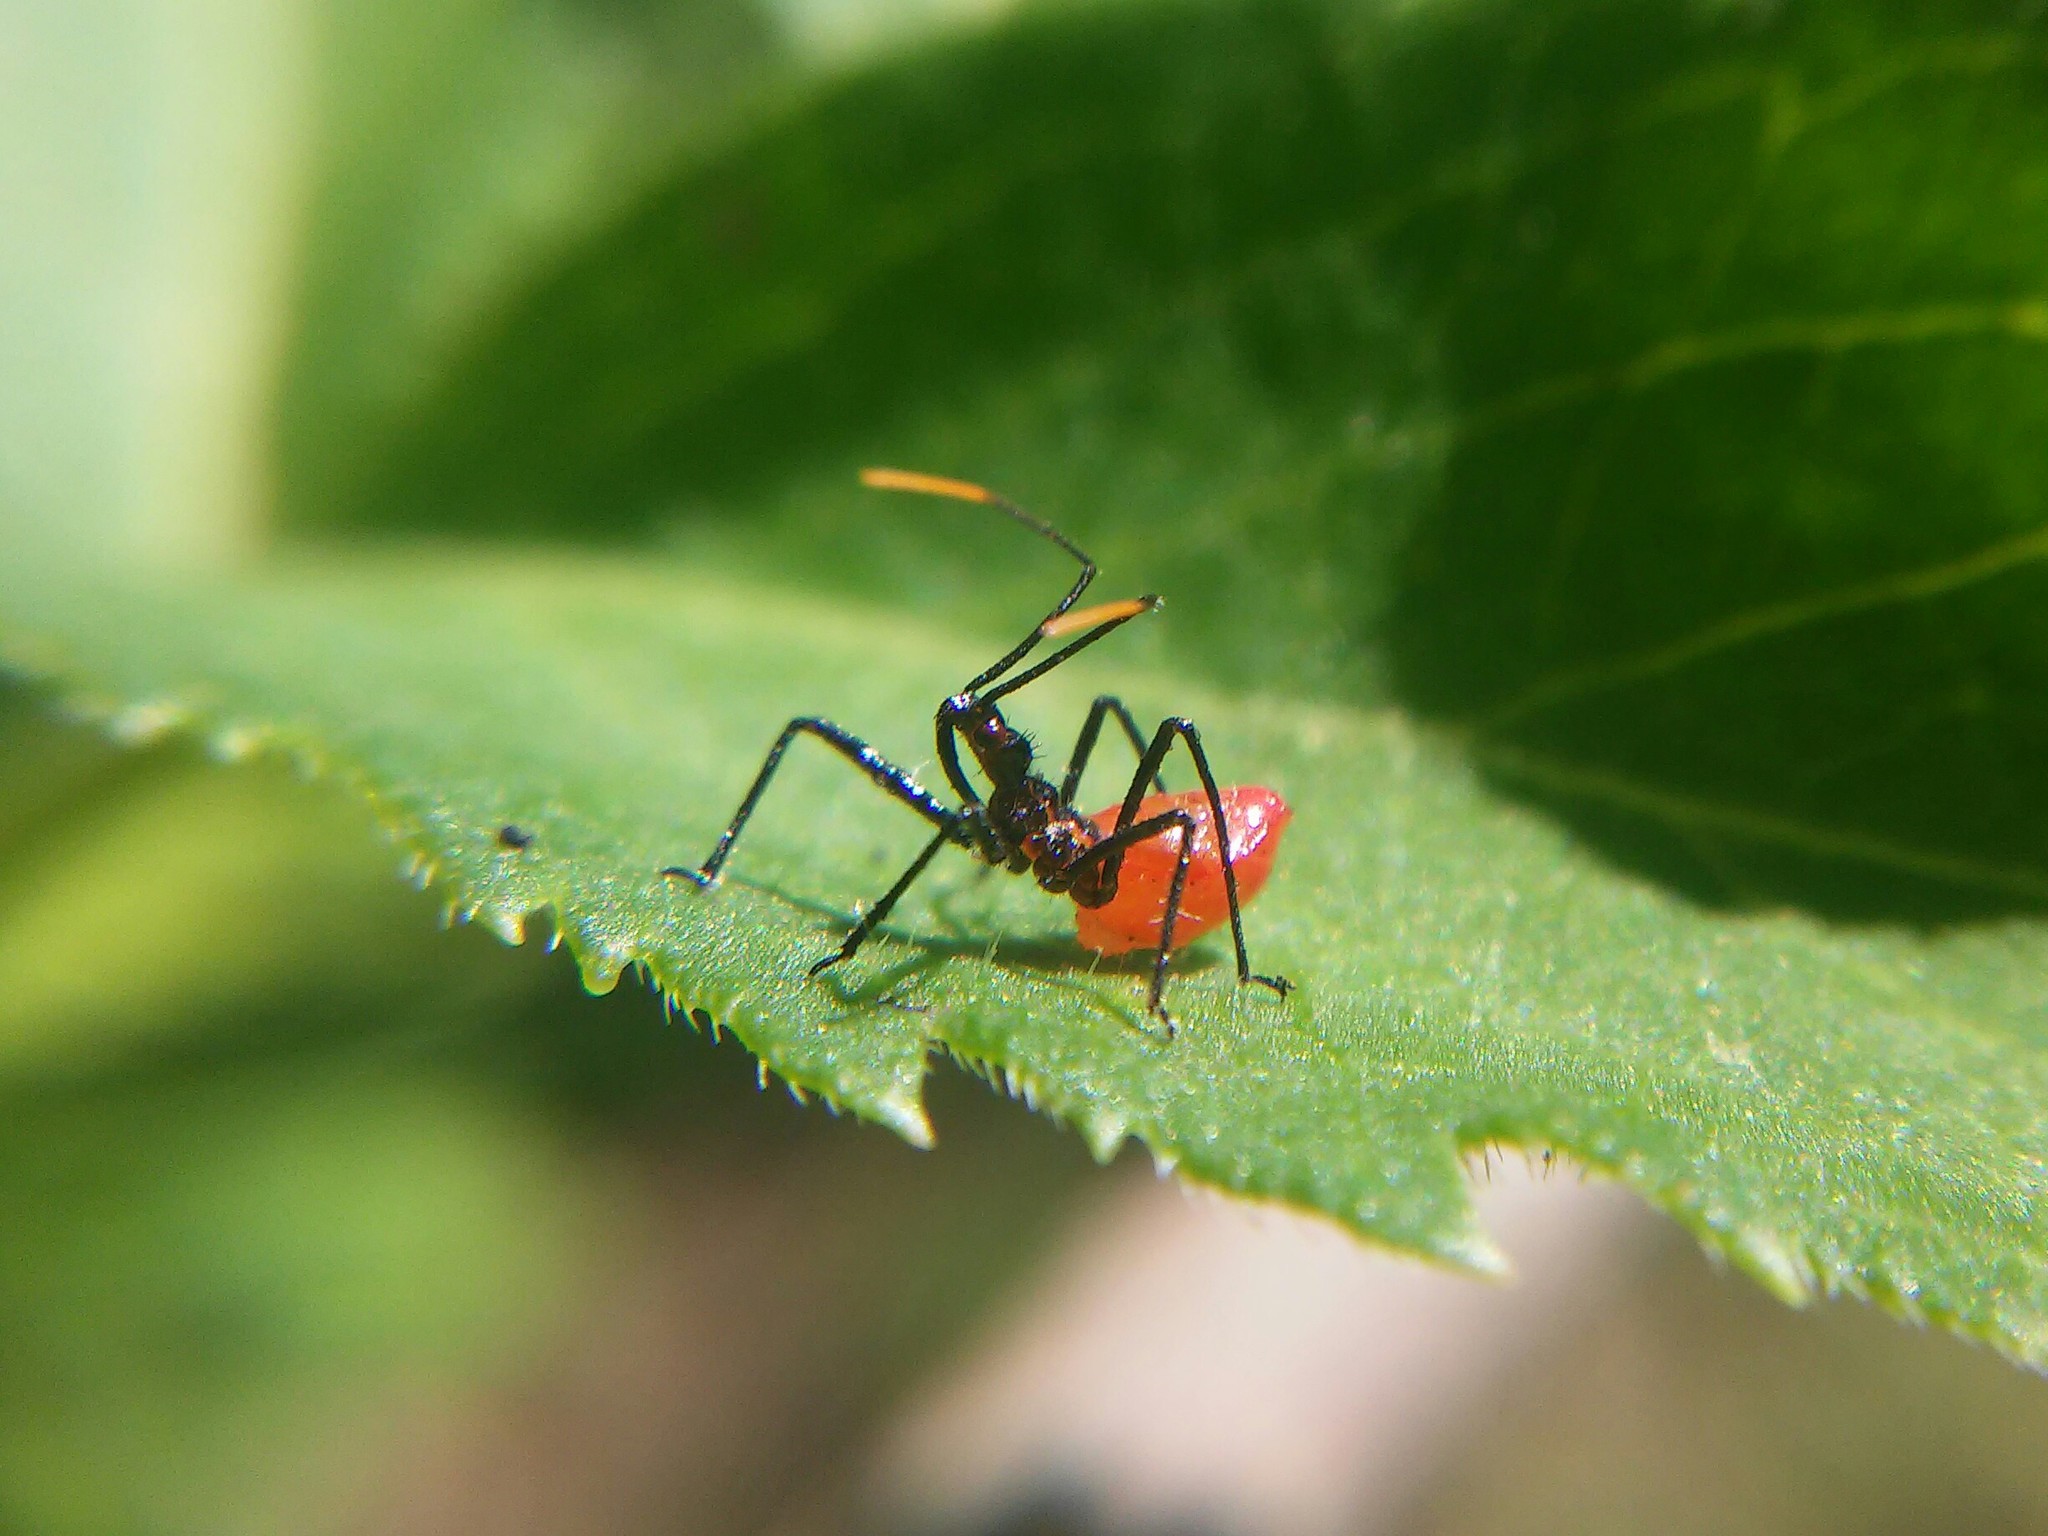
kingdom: Animalia
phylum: Arthropoda
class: Insecta
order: Hemiptera
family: Reduviidae
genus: Arilus
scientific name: Arilus cristatus
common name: North american wheel bug
